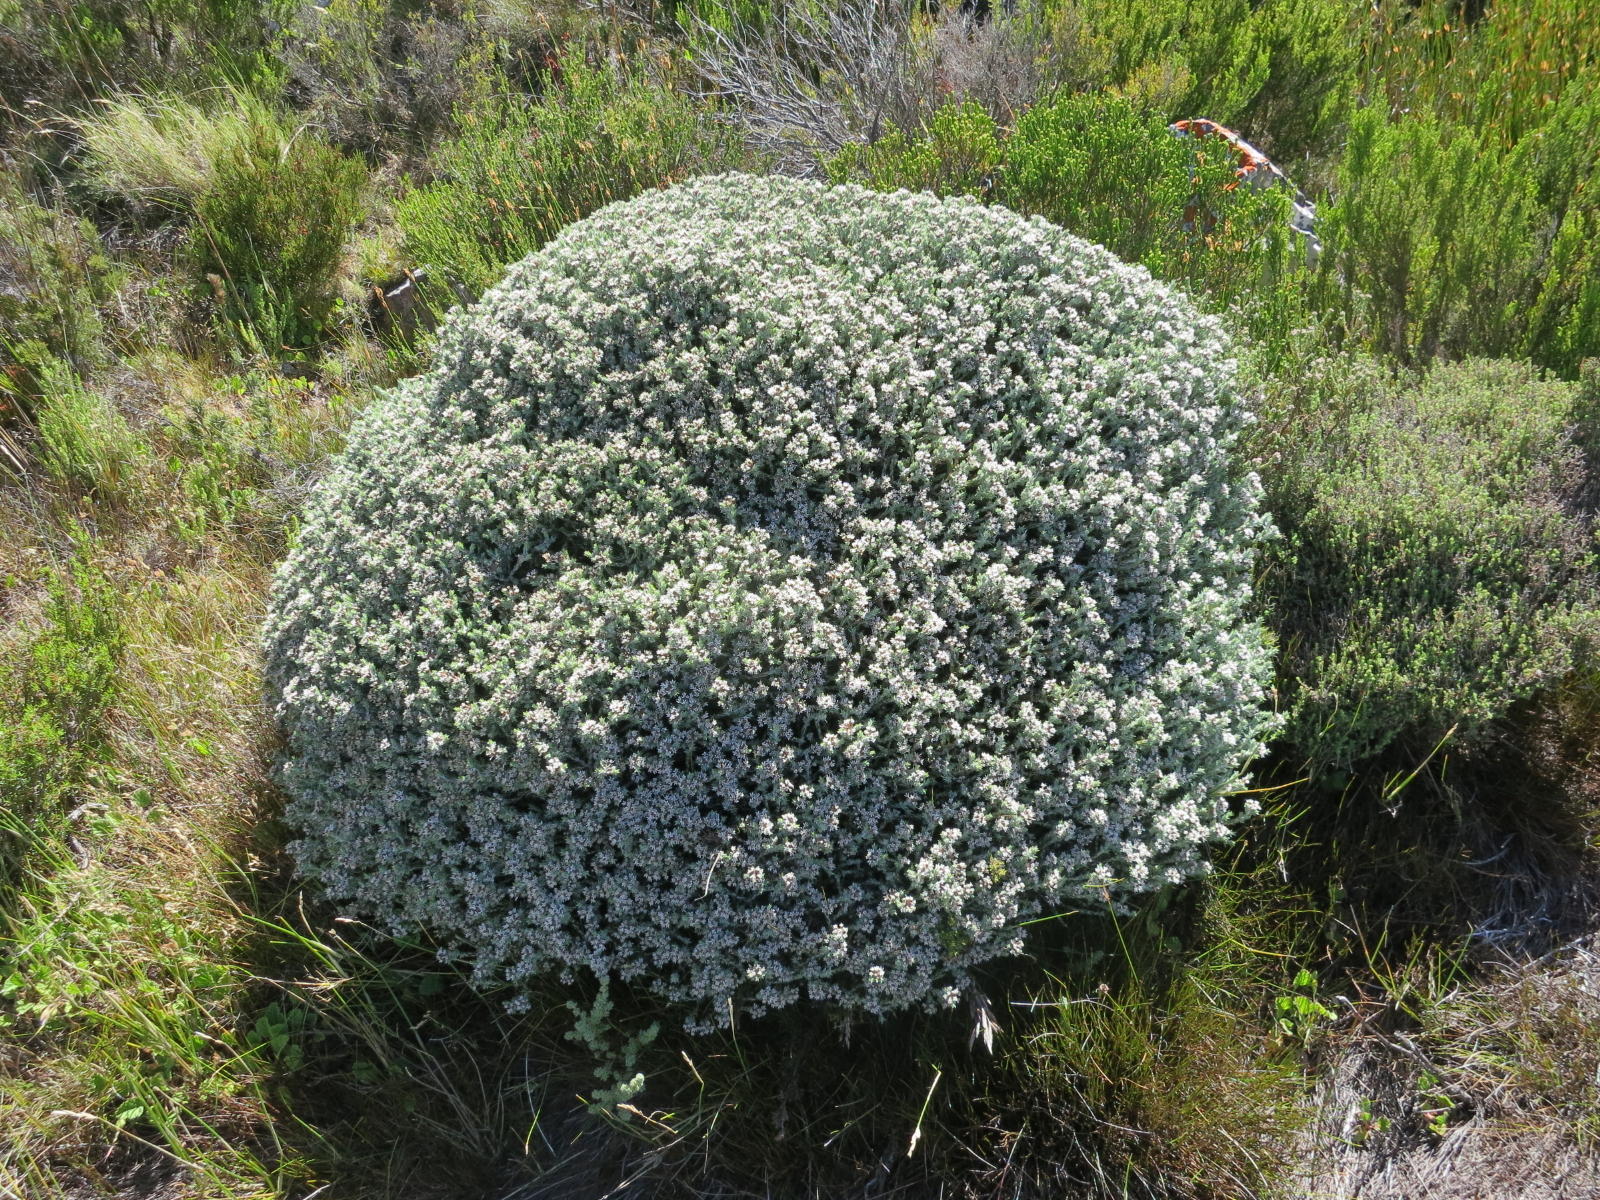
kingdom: Plantae
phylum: Tracheophyta
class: Magnoliopsida
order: Asterales
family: Asteraceae
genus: Metalasia
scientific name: Metalasia strictifolia
